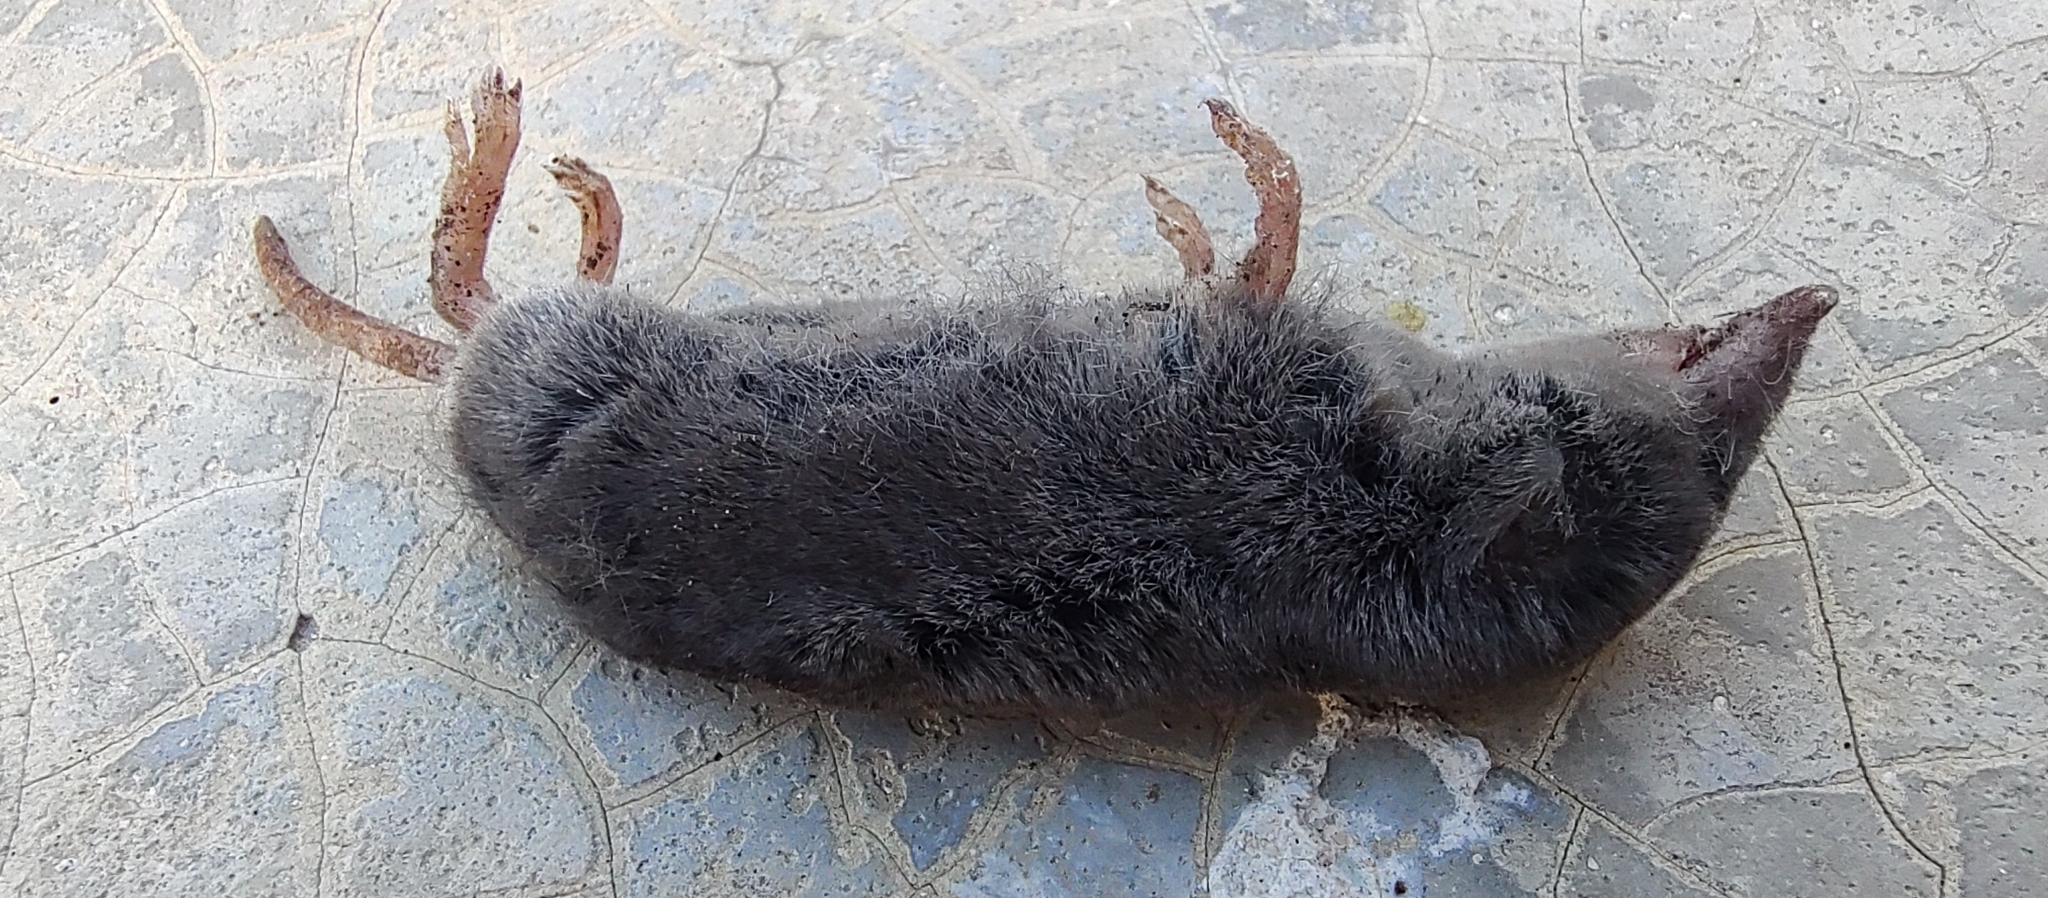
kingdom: Animalia
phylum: Chordata
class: Mammalia
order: Soricomorpha
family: Soricidae
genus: Cryptotis
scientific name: Cryptotis mayensis
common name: Yucatan small-eared shrew
